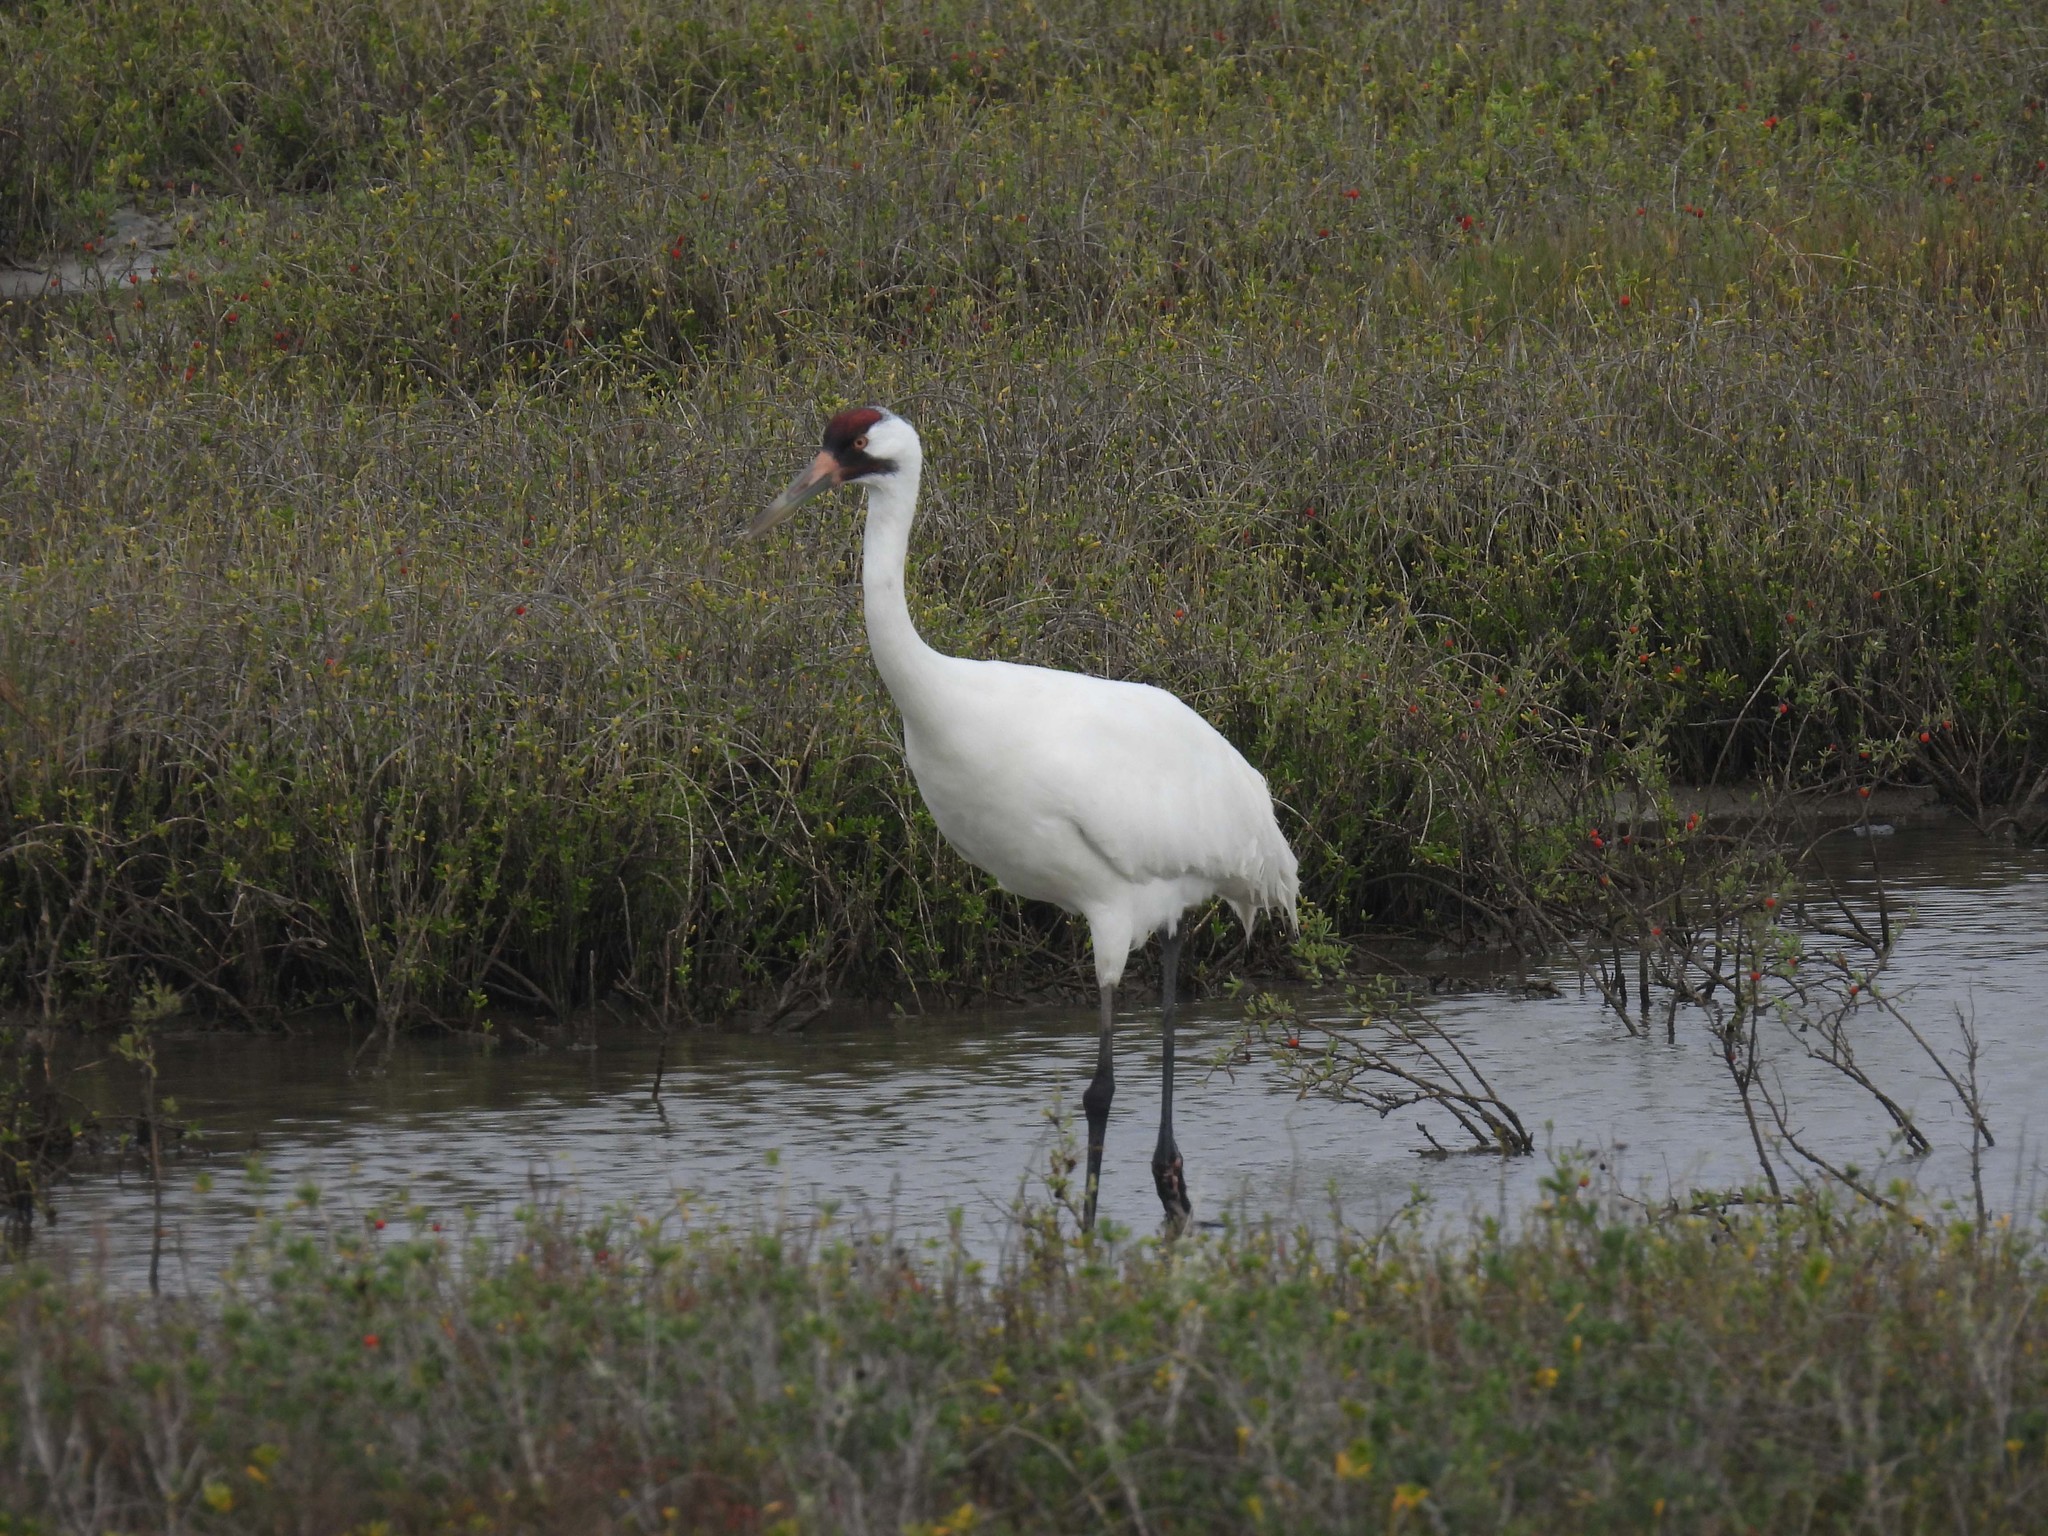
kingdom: Animalia
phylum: Chordata
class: Aves
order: Gruiformes
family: Gruidae
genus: Grus
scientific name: Grus americana
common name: Whooping crane
